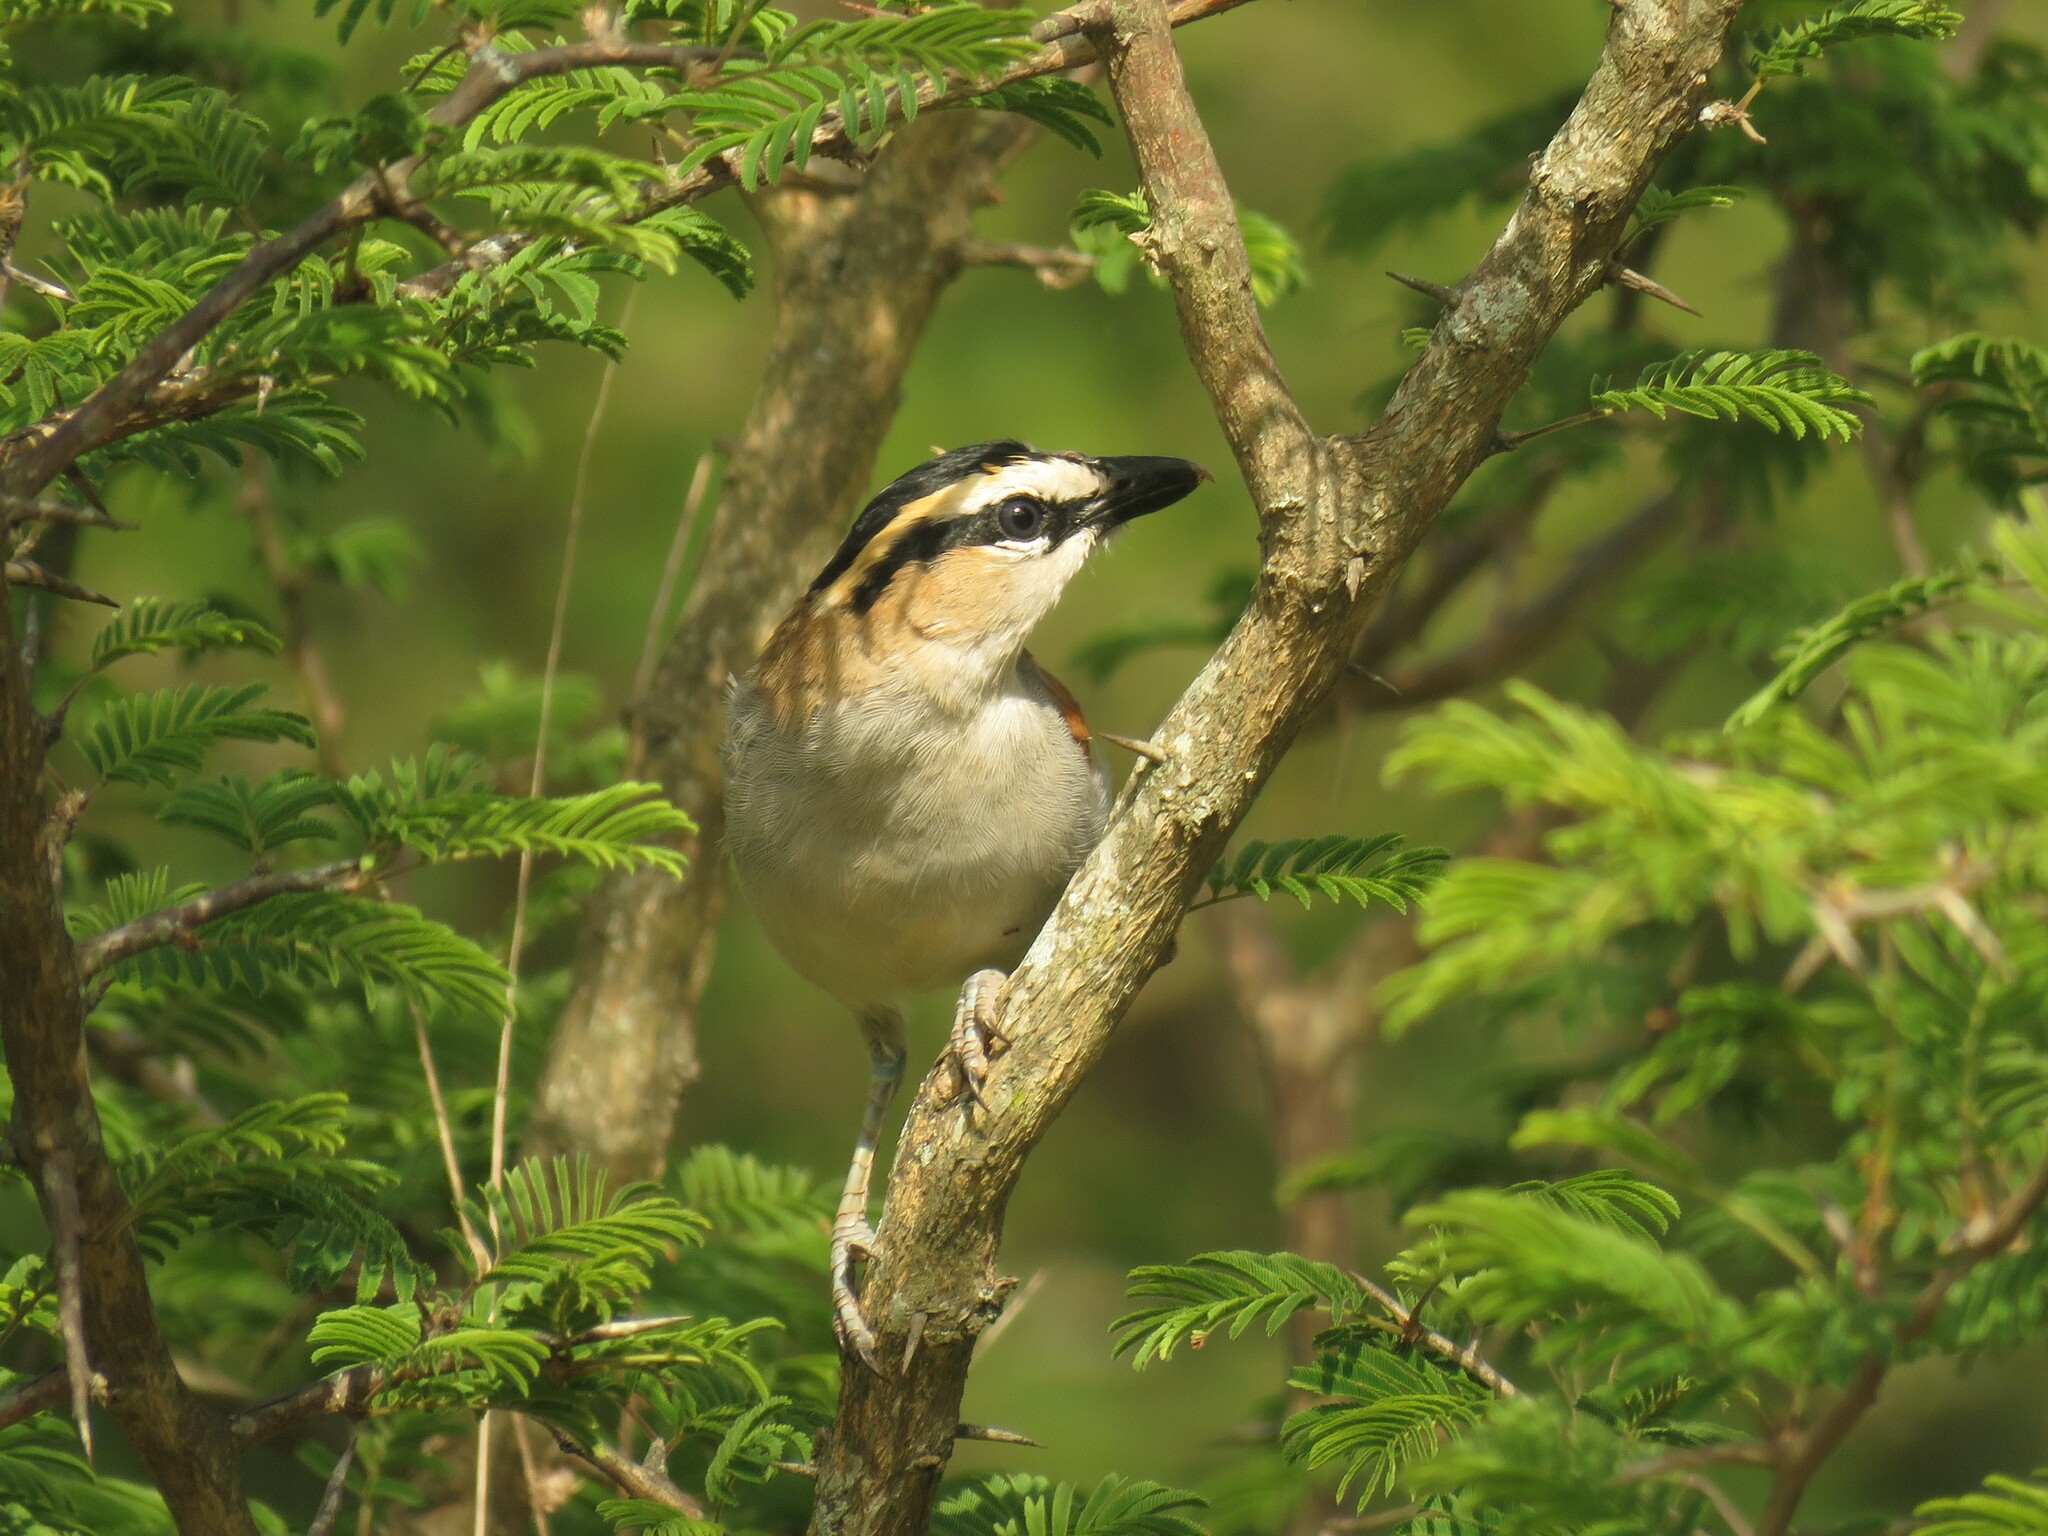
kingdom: Animalia
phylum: Chordata
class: Aves
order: Passeriformes
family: Malaconotidae
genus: Tchagra
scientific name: Tchagra senegalus
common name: Black-crowned tchagra
